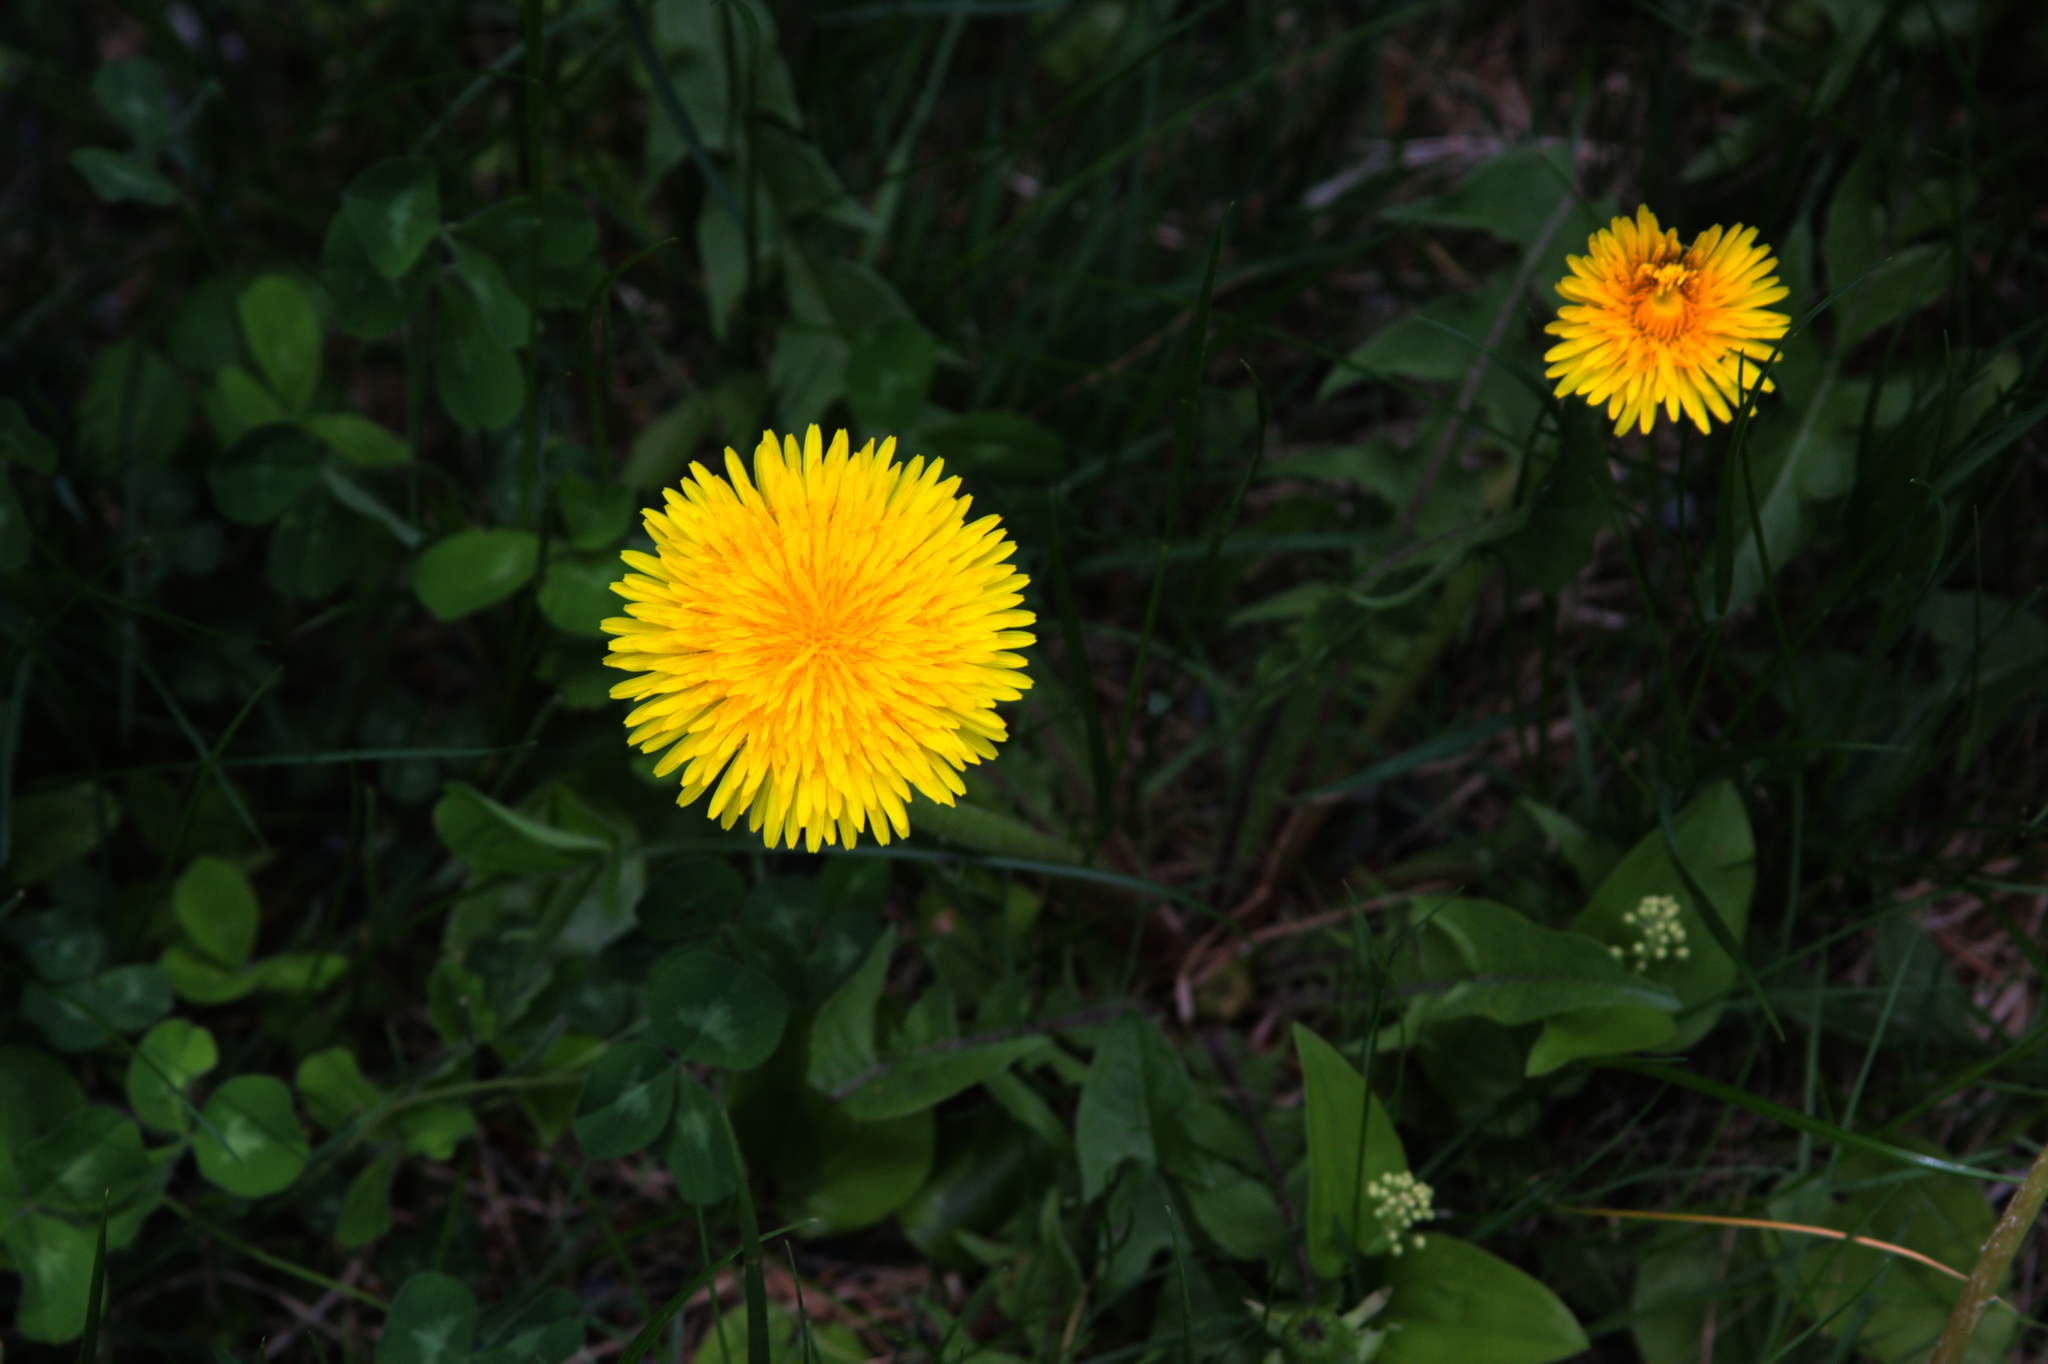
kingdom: Plantae
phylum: Tracheophyta
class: Magnoliopsida
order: Asterales
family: Asteraceae
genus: Taraxacum
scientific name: Taraxacum officinale
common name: Common dandelion
